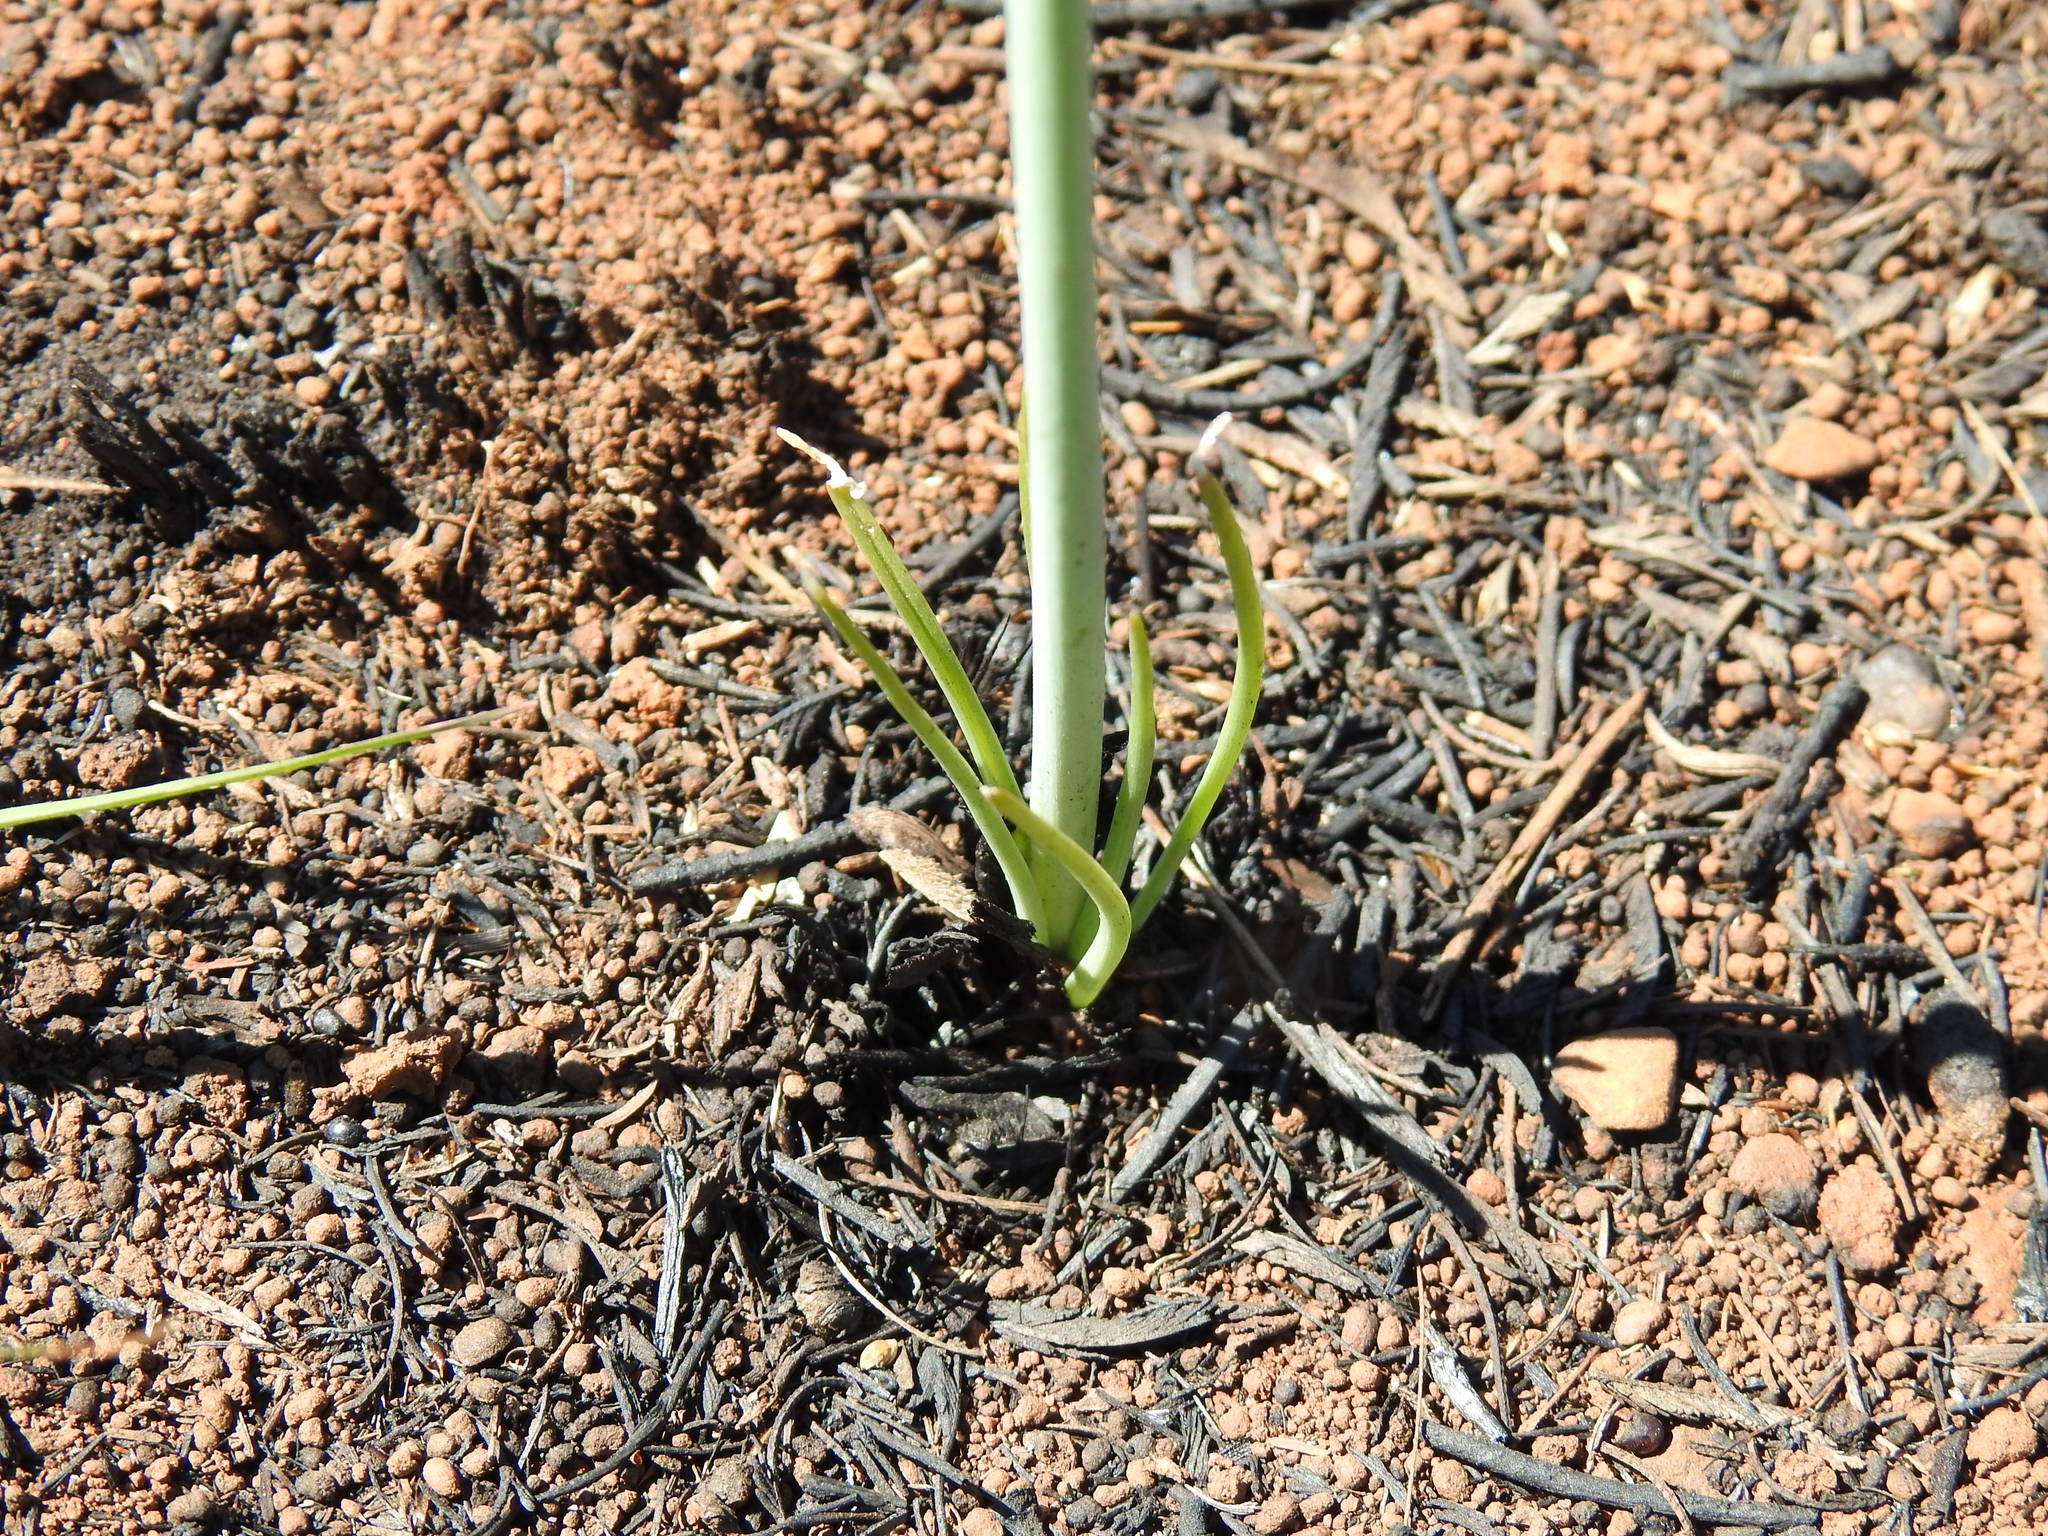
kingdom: Plantae
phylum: Tracheophyta
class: Liliopsida
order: Asparagales
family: Asparagaceae
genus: Albuca
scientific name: Albuca setosa
